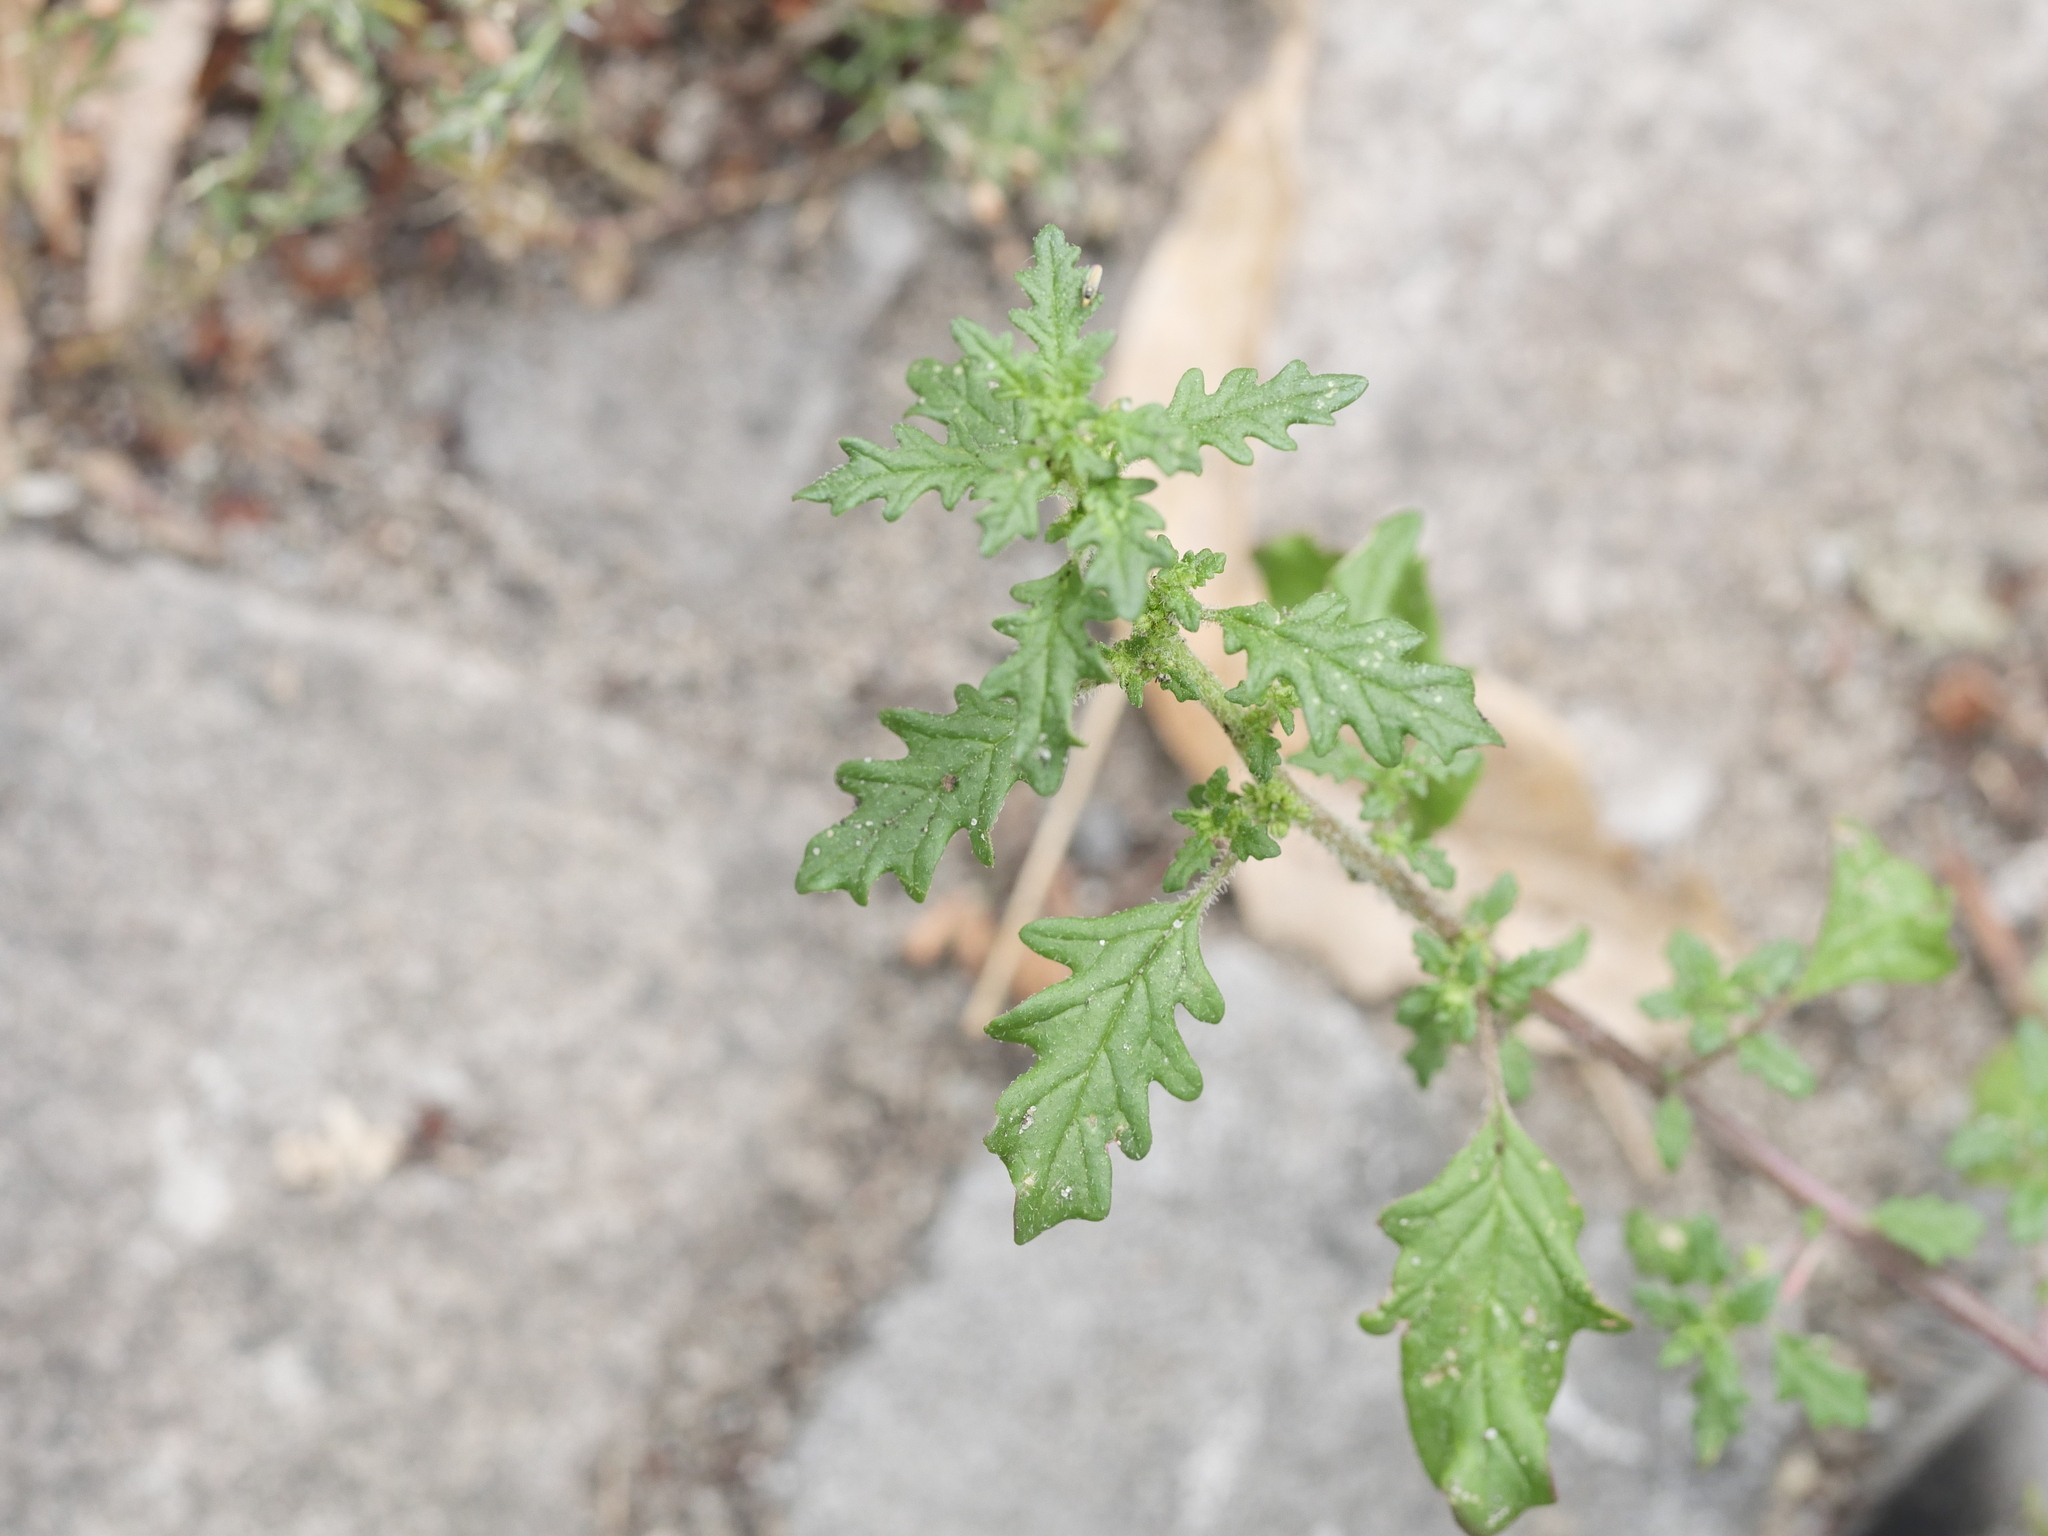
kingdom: Plantae
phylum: Tracheophyta
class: Magnoliopsida
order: Caryophyllales
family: Amaranthaceae
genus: Dysphania
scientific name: Dysphania pumilio
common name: Clammy goosefoot
